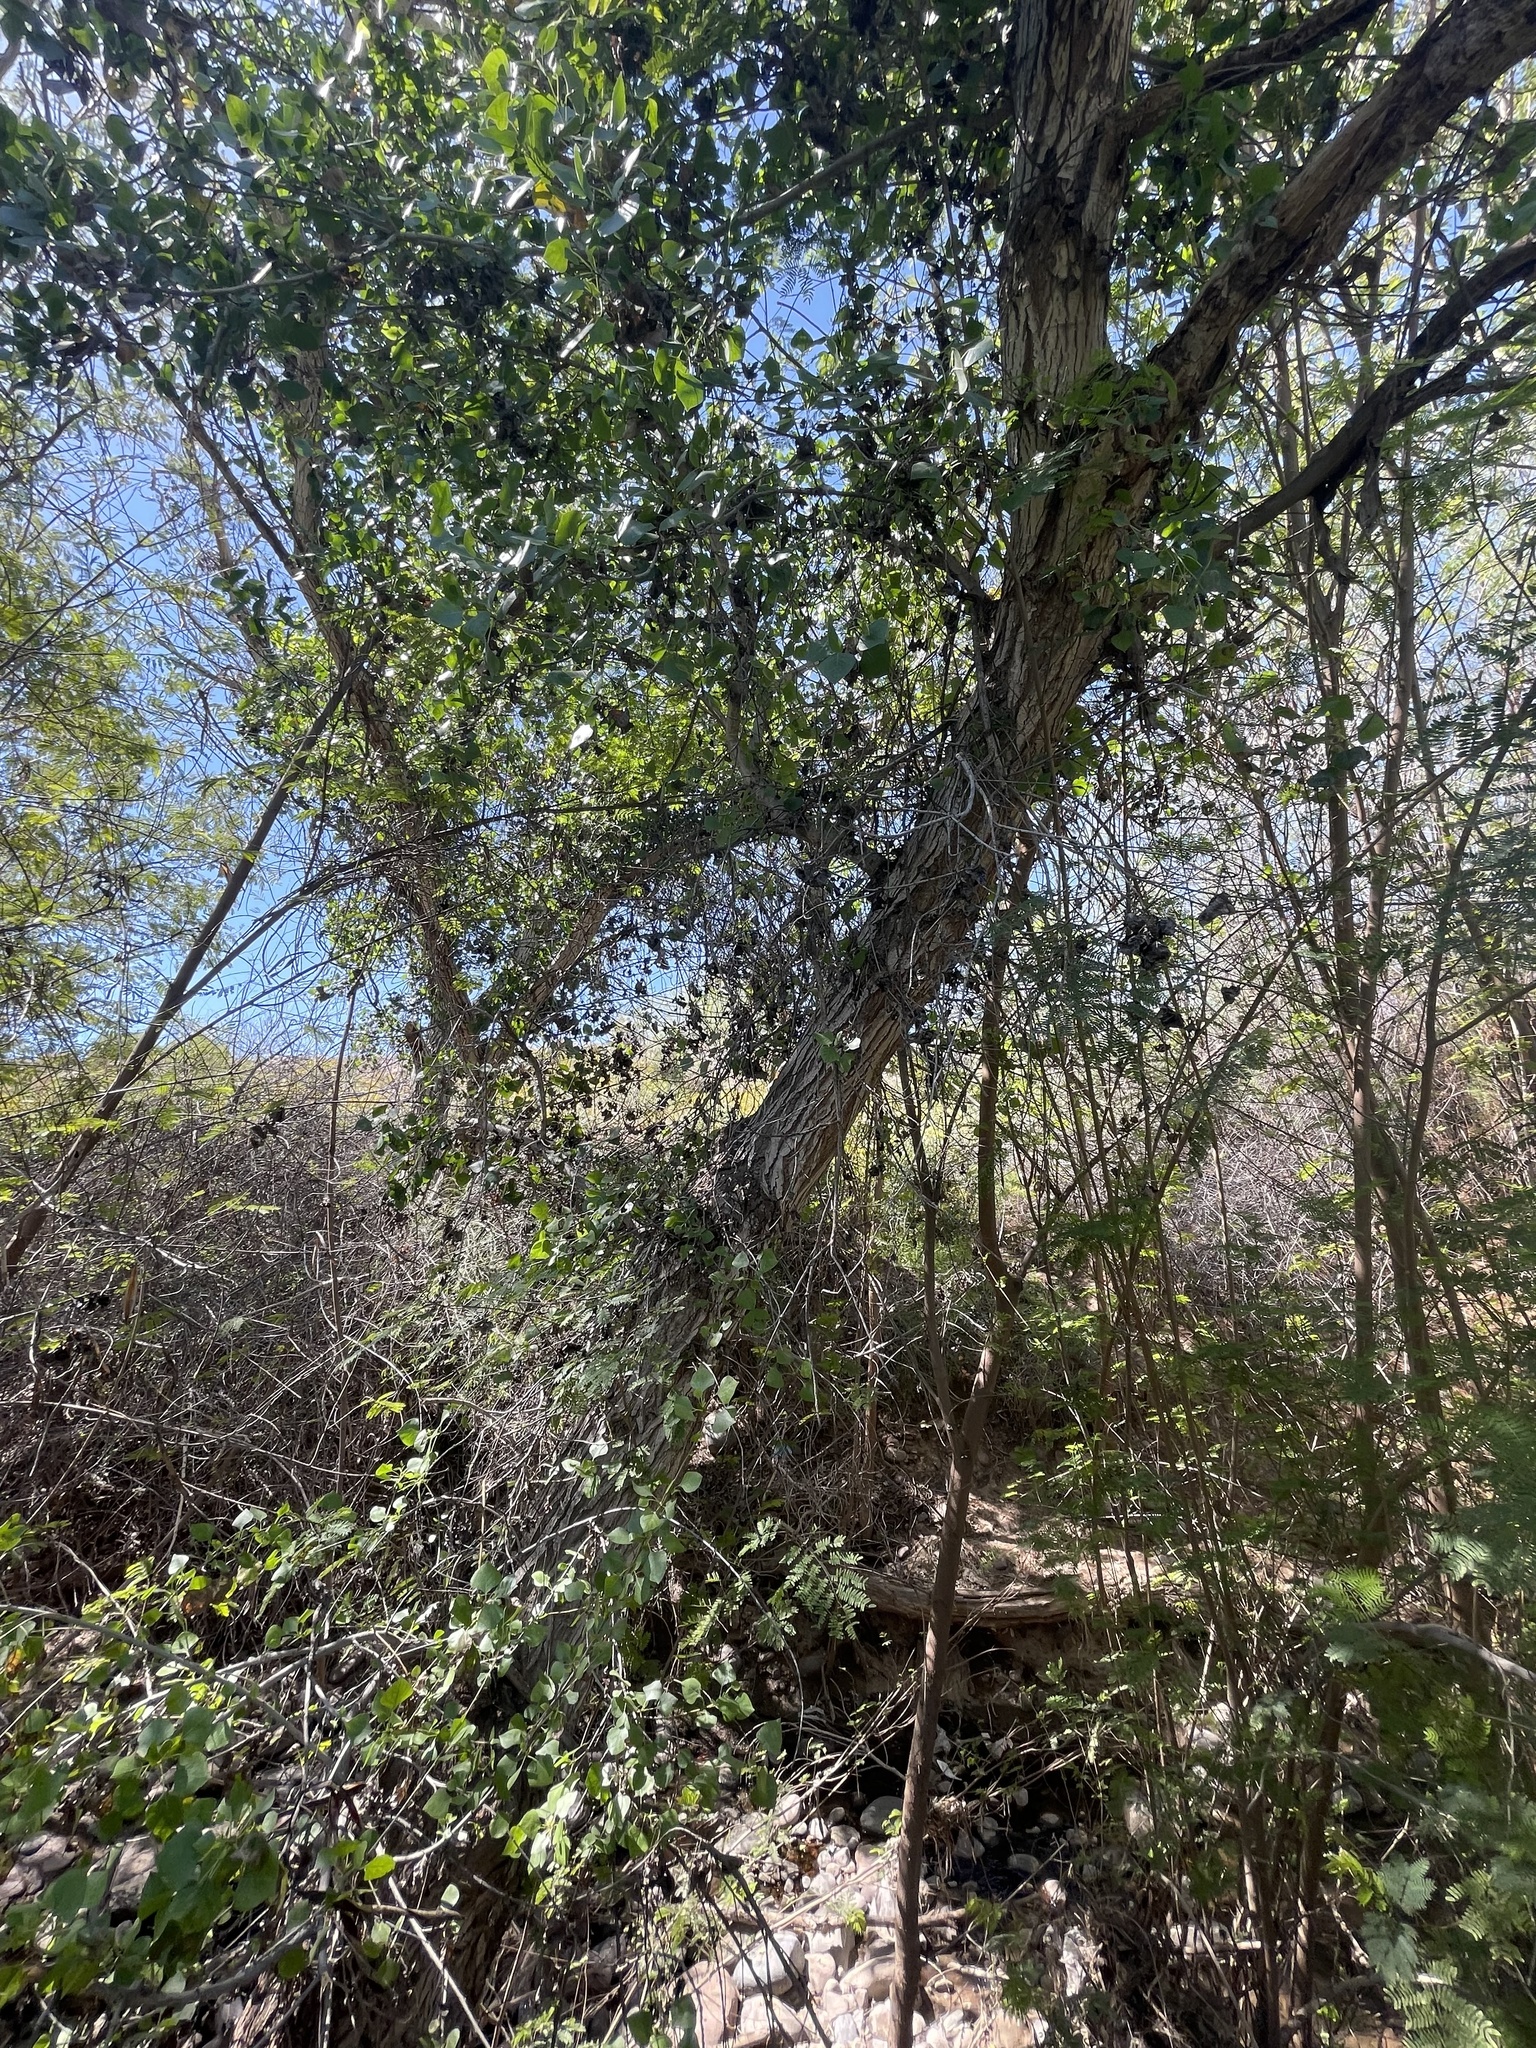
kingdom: Plantae
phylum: Tracheophyta
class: Magnoliopsida
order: Malpighiales
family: Salicaceae
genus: Populus
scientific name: Populus fremontii
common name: Fremont's cottonwood
